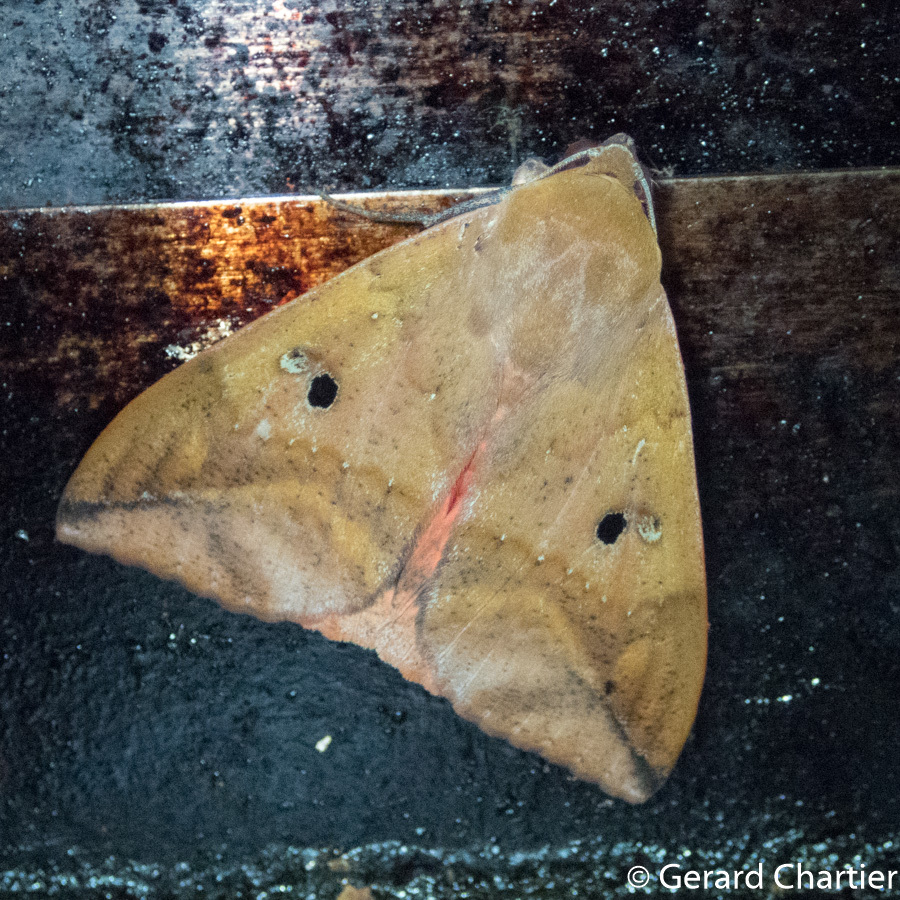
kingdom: Animalia
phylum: Arthropoda
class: Insecta
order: Lepidoptera
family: Erebidae
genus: Thyas
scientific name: Thyas honesta
